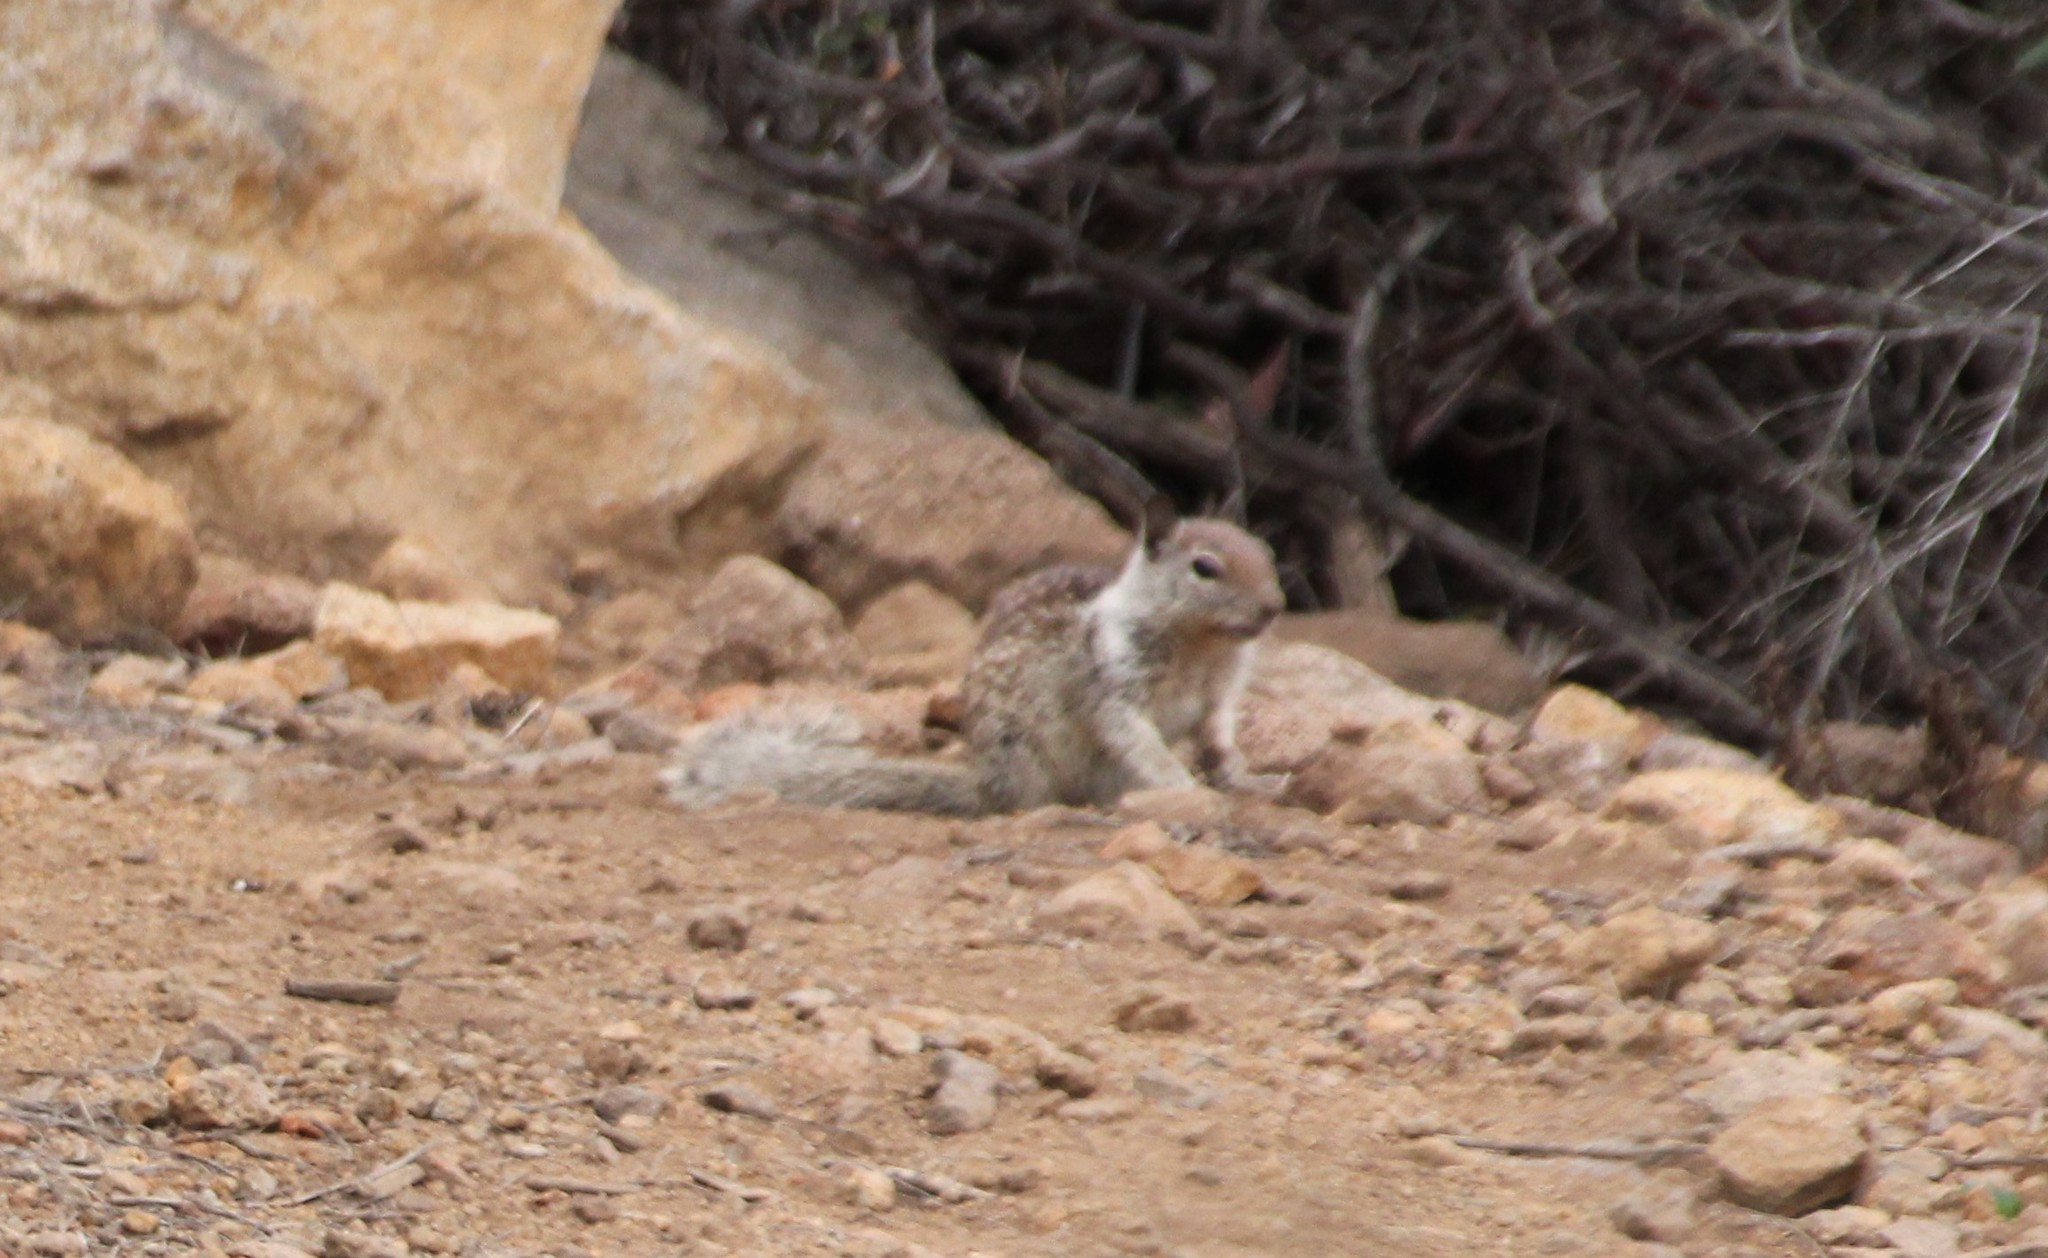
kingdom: Animalia
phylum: Chordata
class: Mammalia
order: Rodentia
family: Sciuridae
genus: Otospermophilus
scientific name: Otospermophilus beecheyi
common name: California ground squirrel
